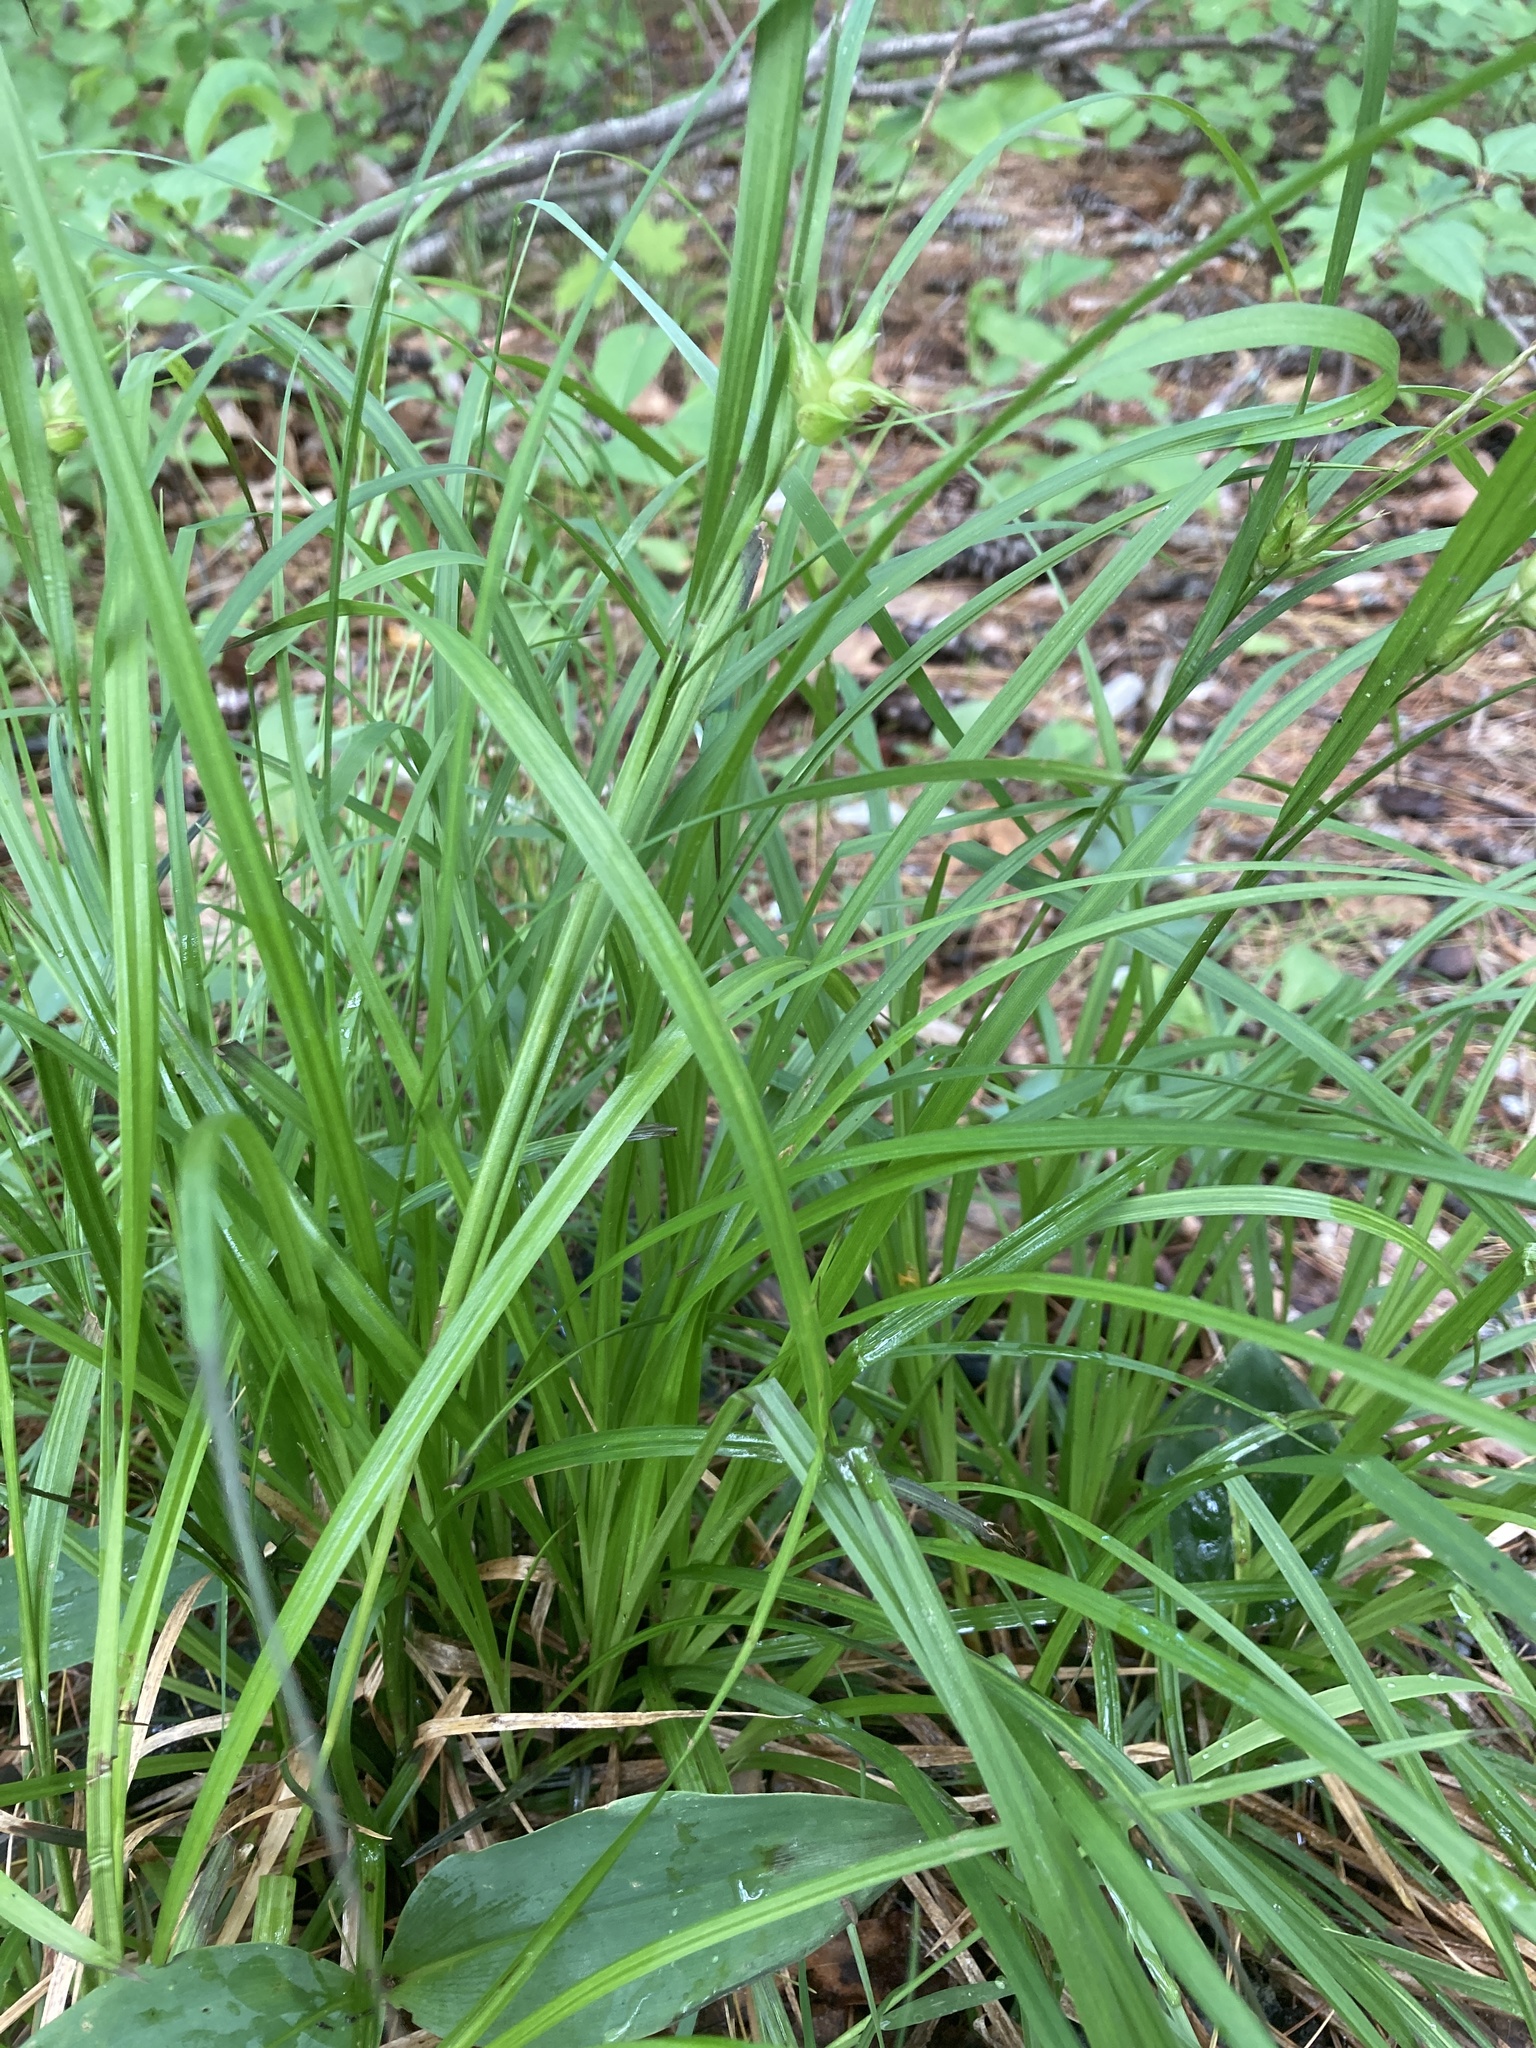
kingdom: Plantae
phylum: Tracheophyta
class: Liliopsida
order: Poales
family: Cyperaceae
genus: Carex
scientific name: Carex intumescens
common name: Greater bladder sedge
